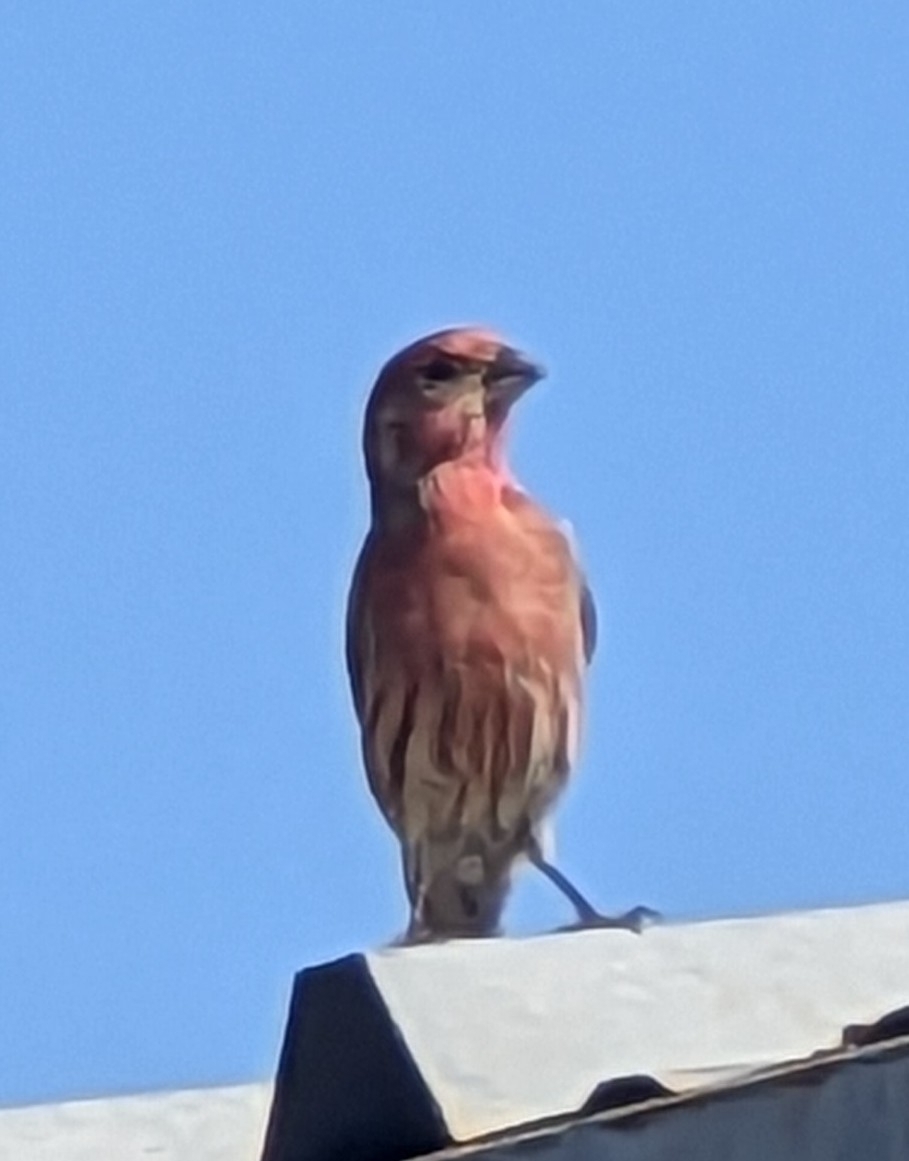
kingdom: Animalia
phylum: Chordata
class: Aves
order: Passeriformes
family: Fringillidae
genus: Haemorhous
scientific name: Haemorhous mexicanus
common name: House finch
